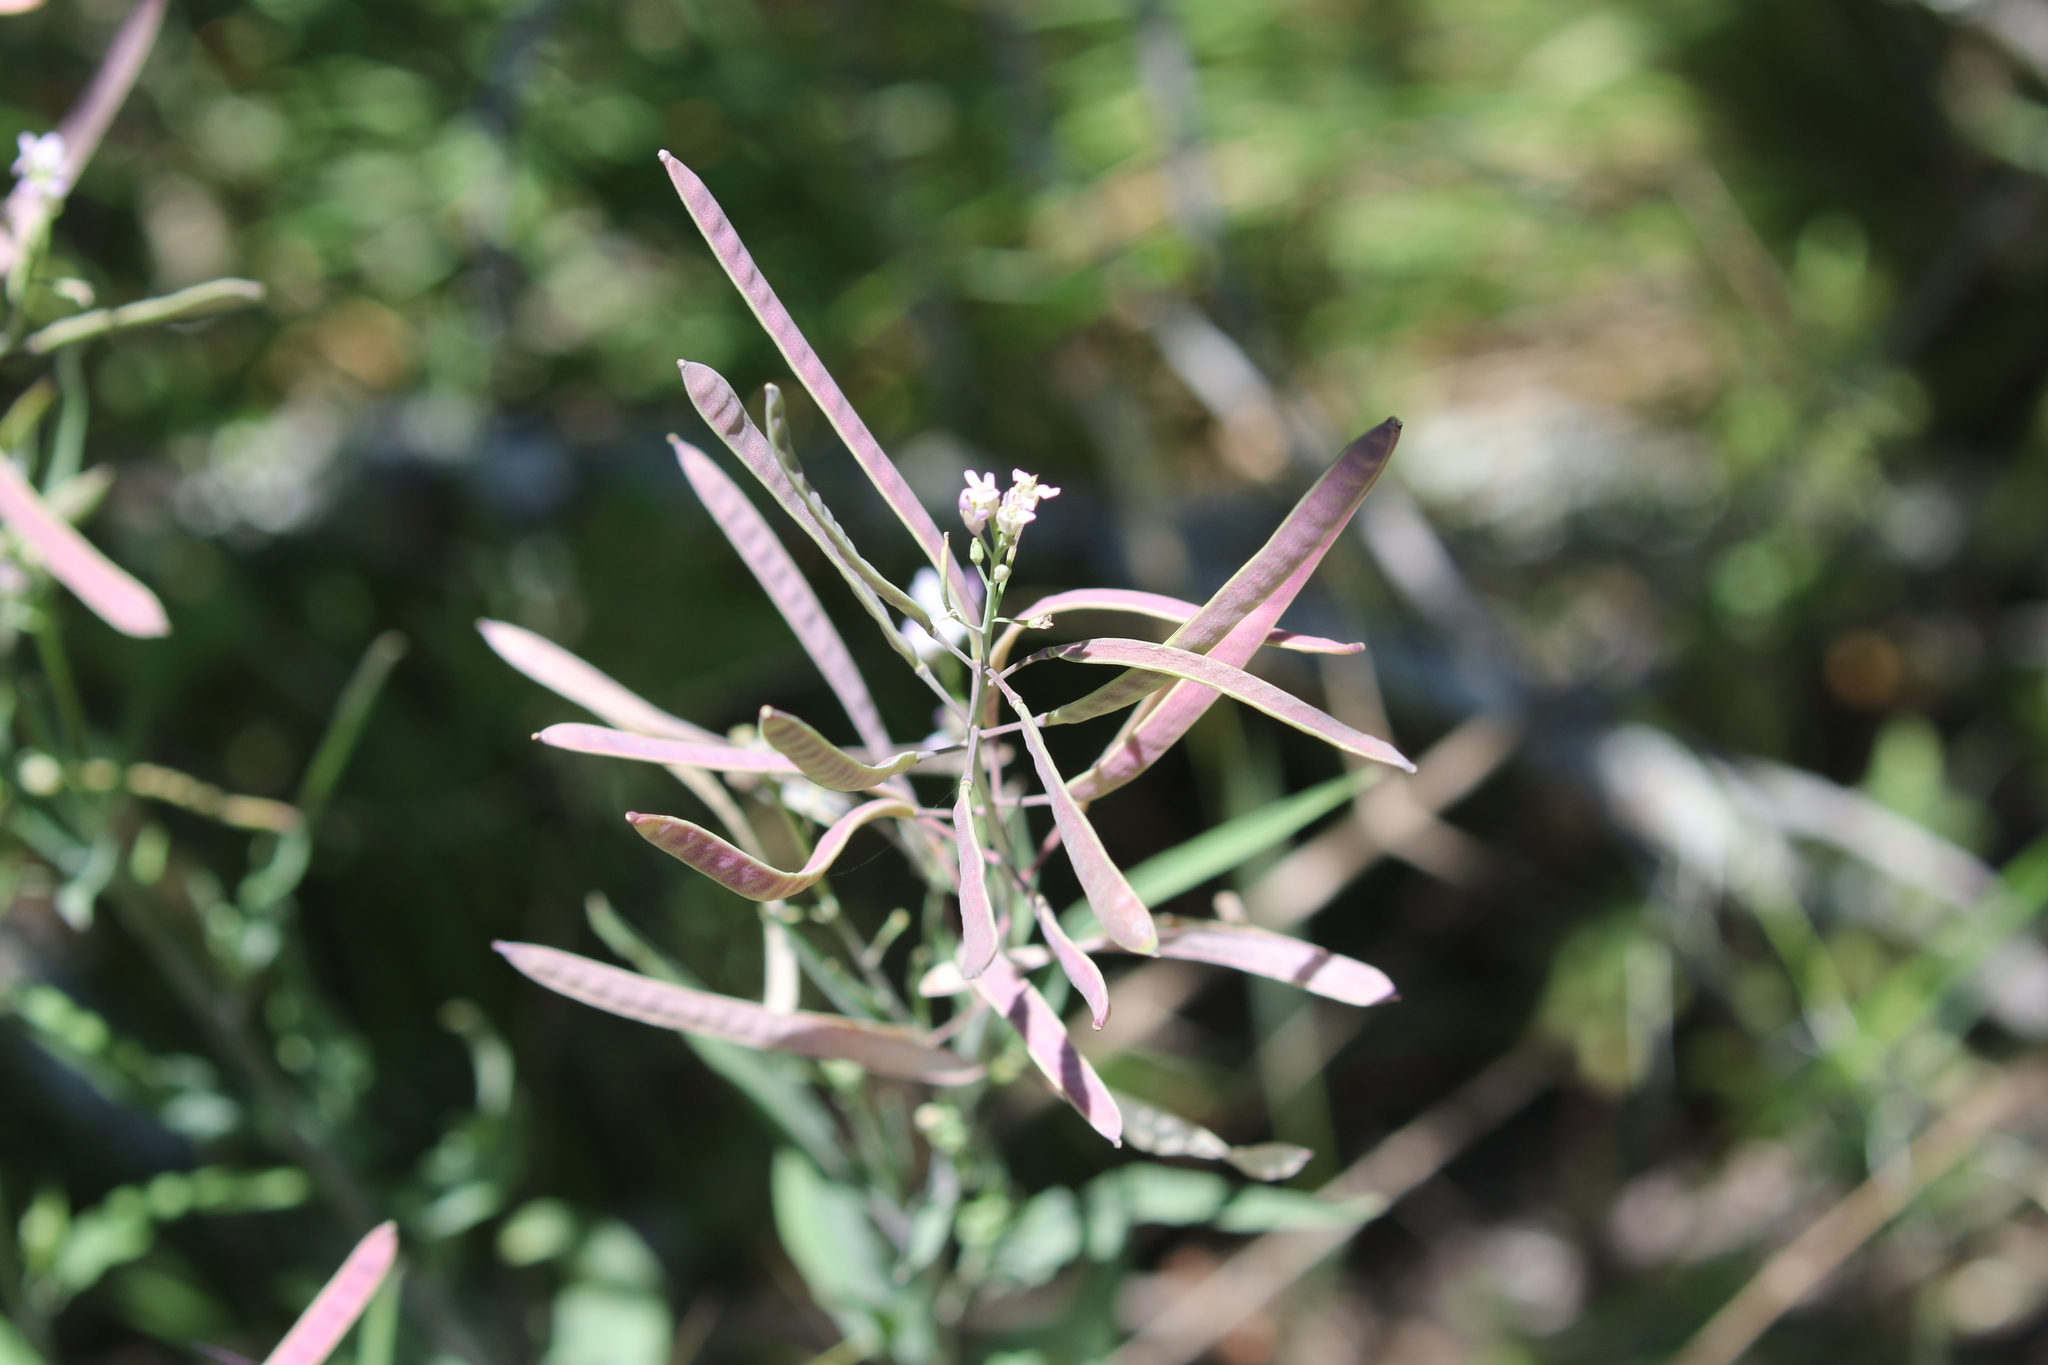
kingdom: Plantae
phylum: Tracheophyta
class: Magnoliopsida
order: Brassicales
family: Brassicaceae
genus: Streptanthus
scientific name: Streptanthus petiolaris
